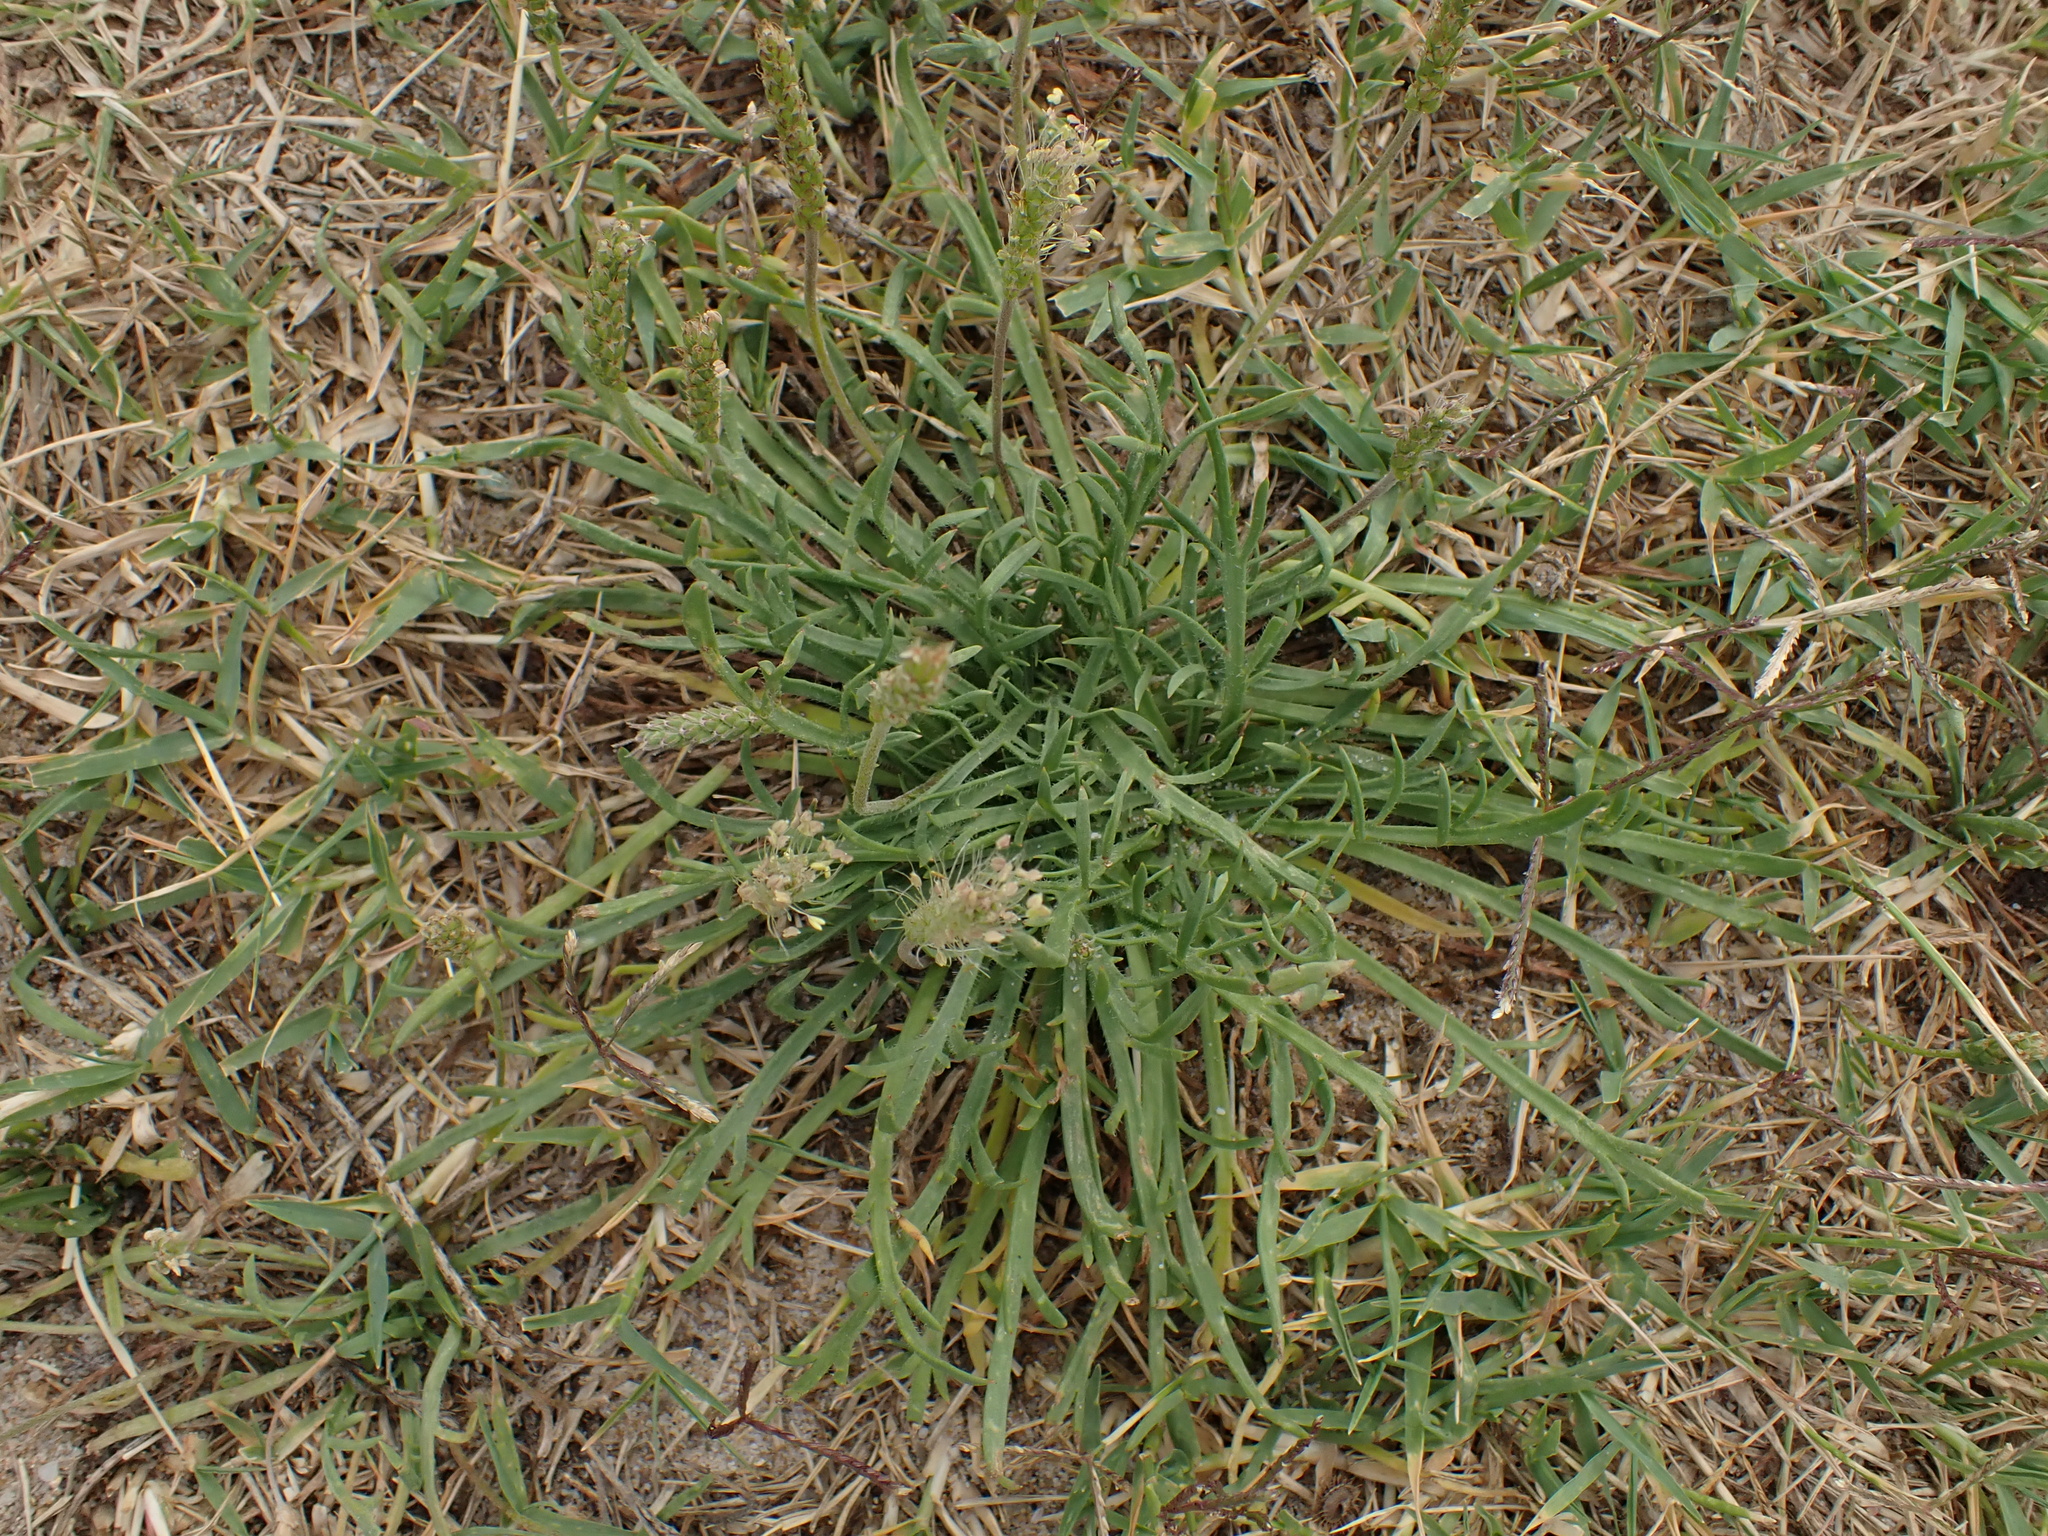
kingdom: Plantae
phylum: Tracheophyta
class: Magnoliopsida
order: Lamiales
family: Plantaginaceae
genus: Plantago
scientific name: Plantago coronopus
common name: Buck's-horn plantain
